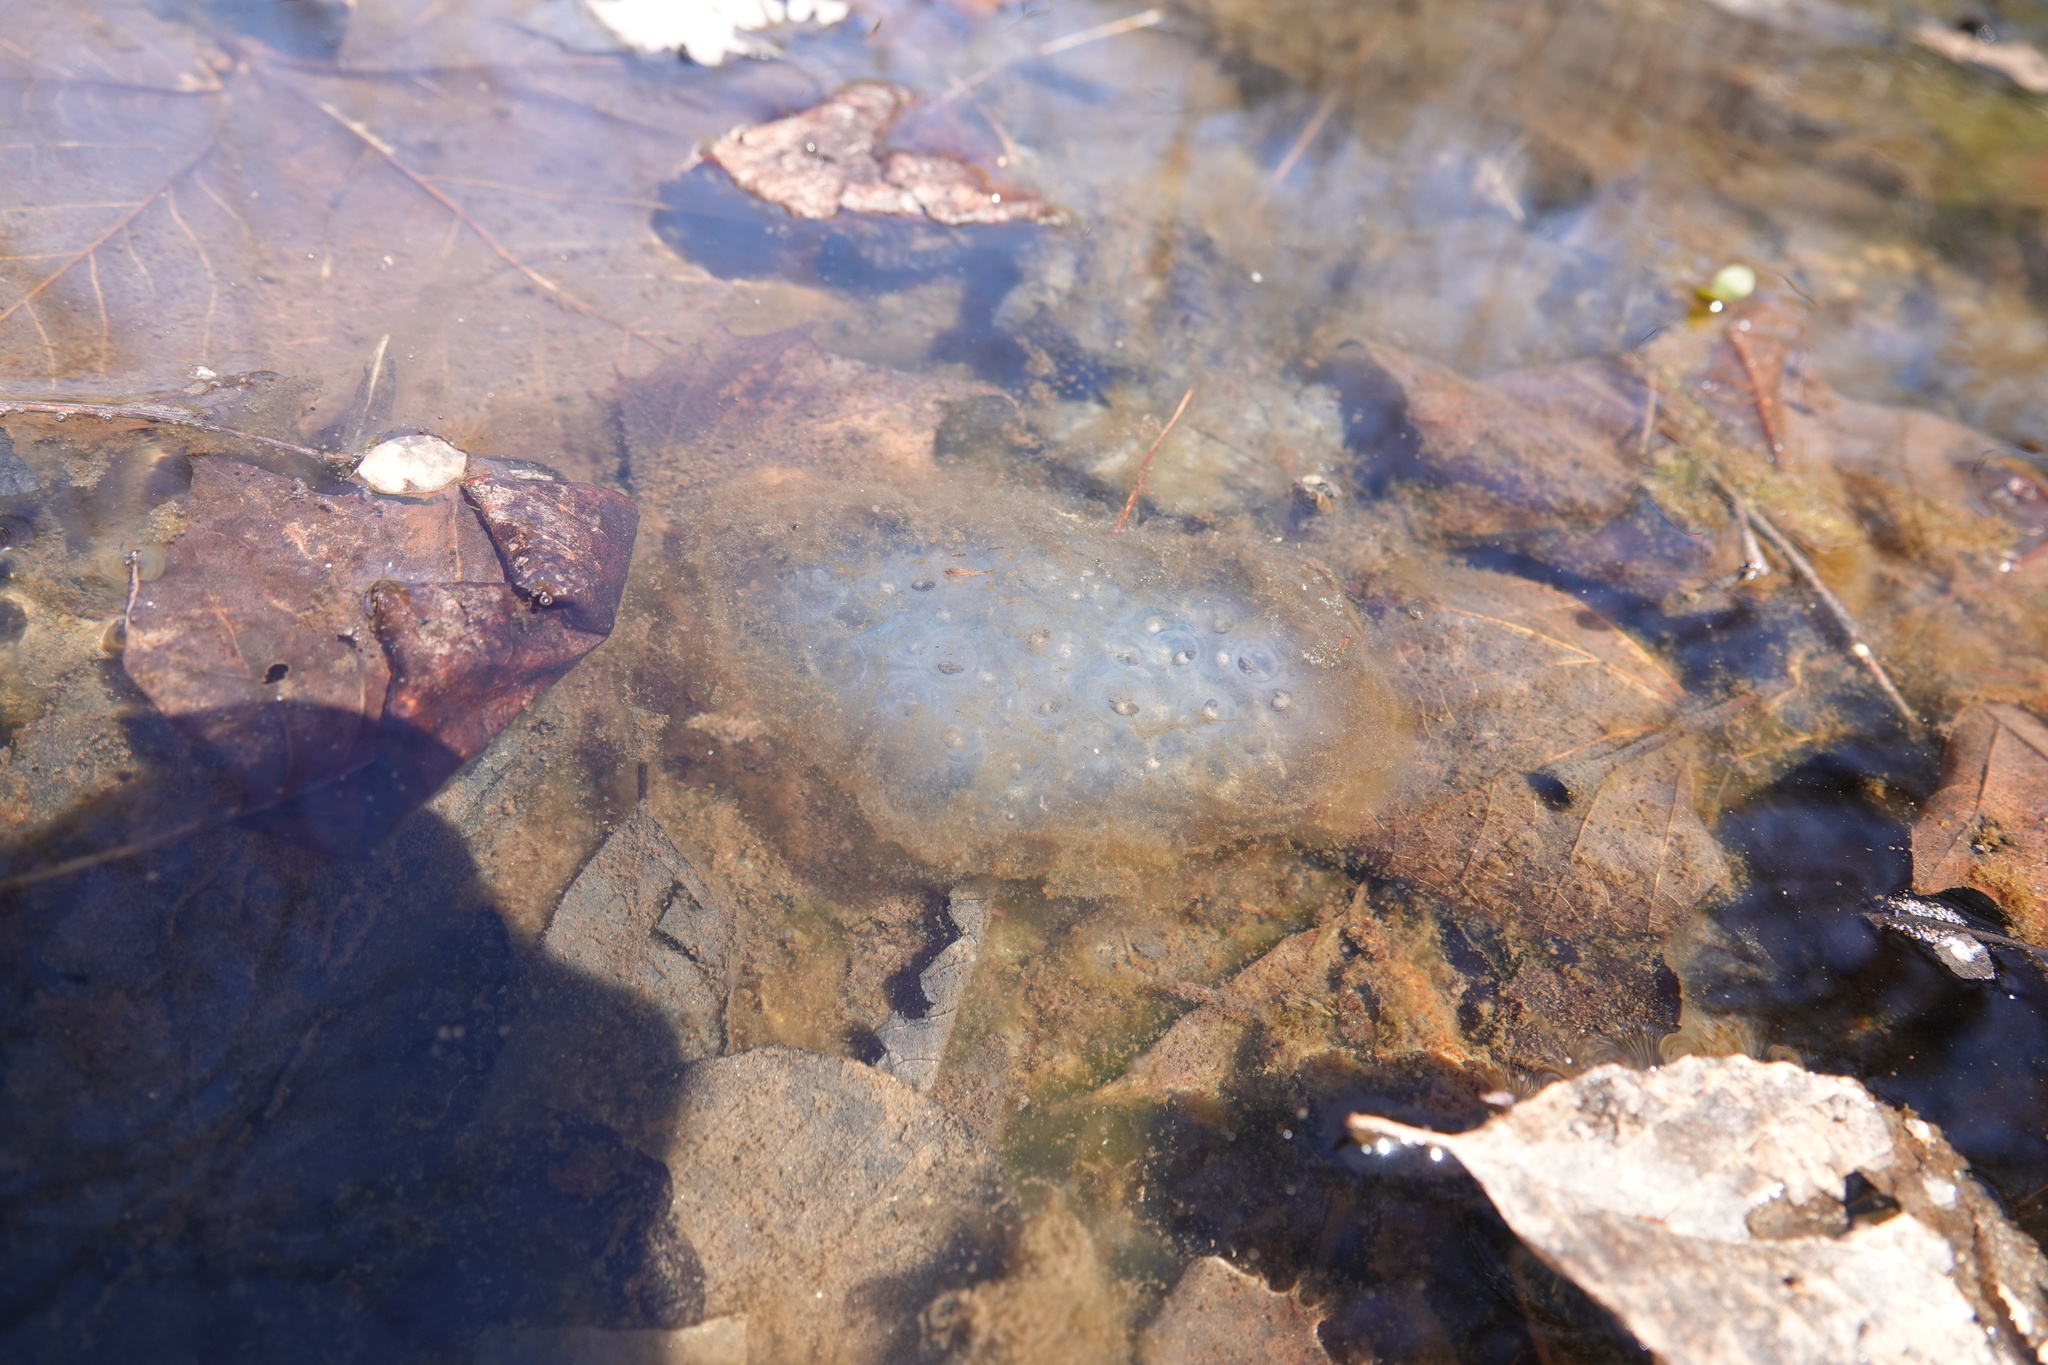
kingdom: Animalia
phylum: Chordata
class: Amphibia
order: Caudata
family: Ambystomatidae
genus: Ambystoma
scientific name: Ambystoma maculatum
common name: Spotted salamander
